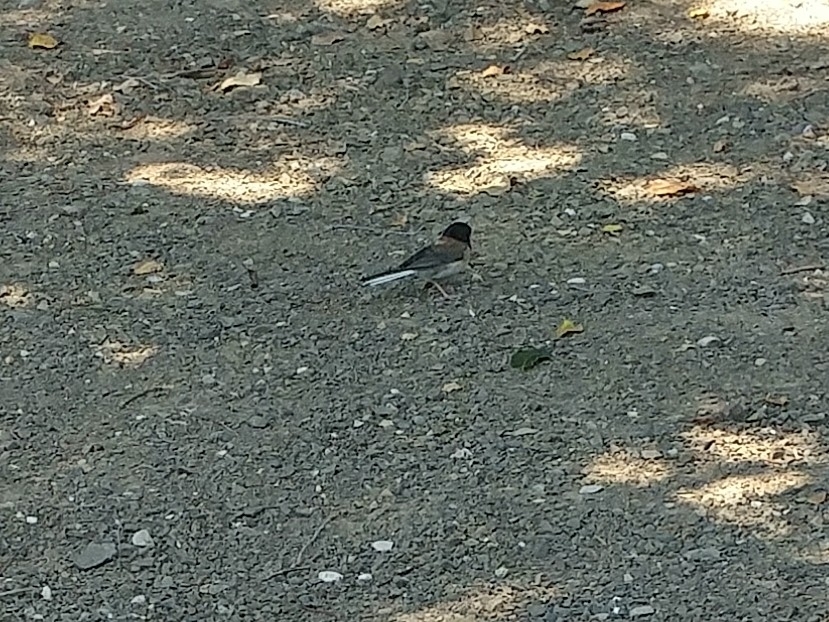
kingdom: Animalia
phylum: Chordata
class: Aves
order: Passeriformes
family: Passerellidae
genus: Junco
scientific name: Junco hyemalis
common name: Dark-eyed junco
